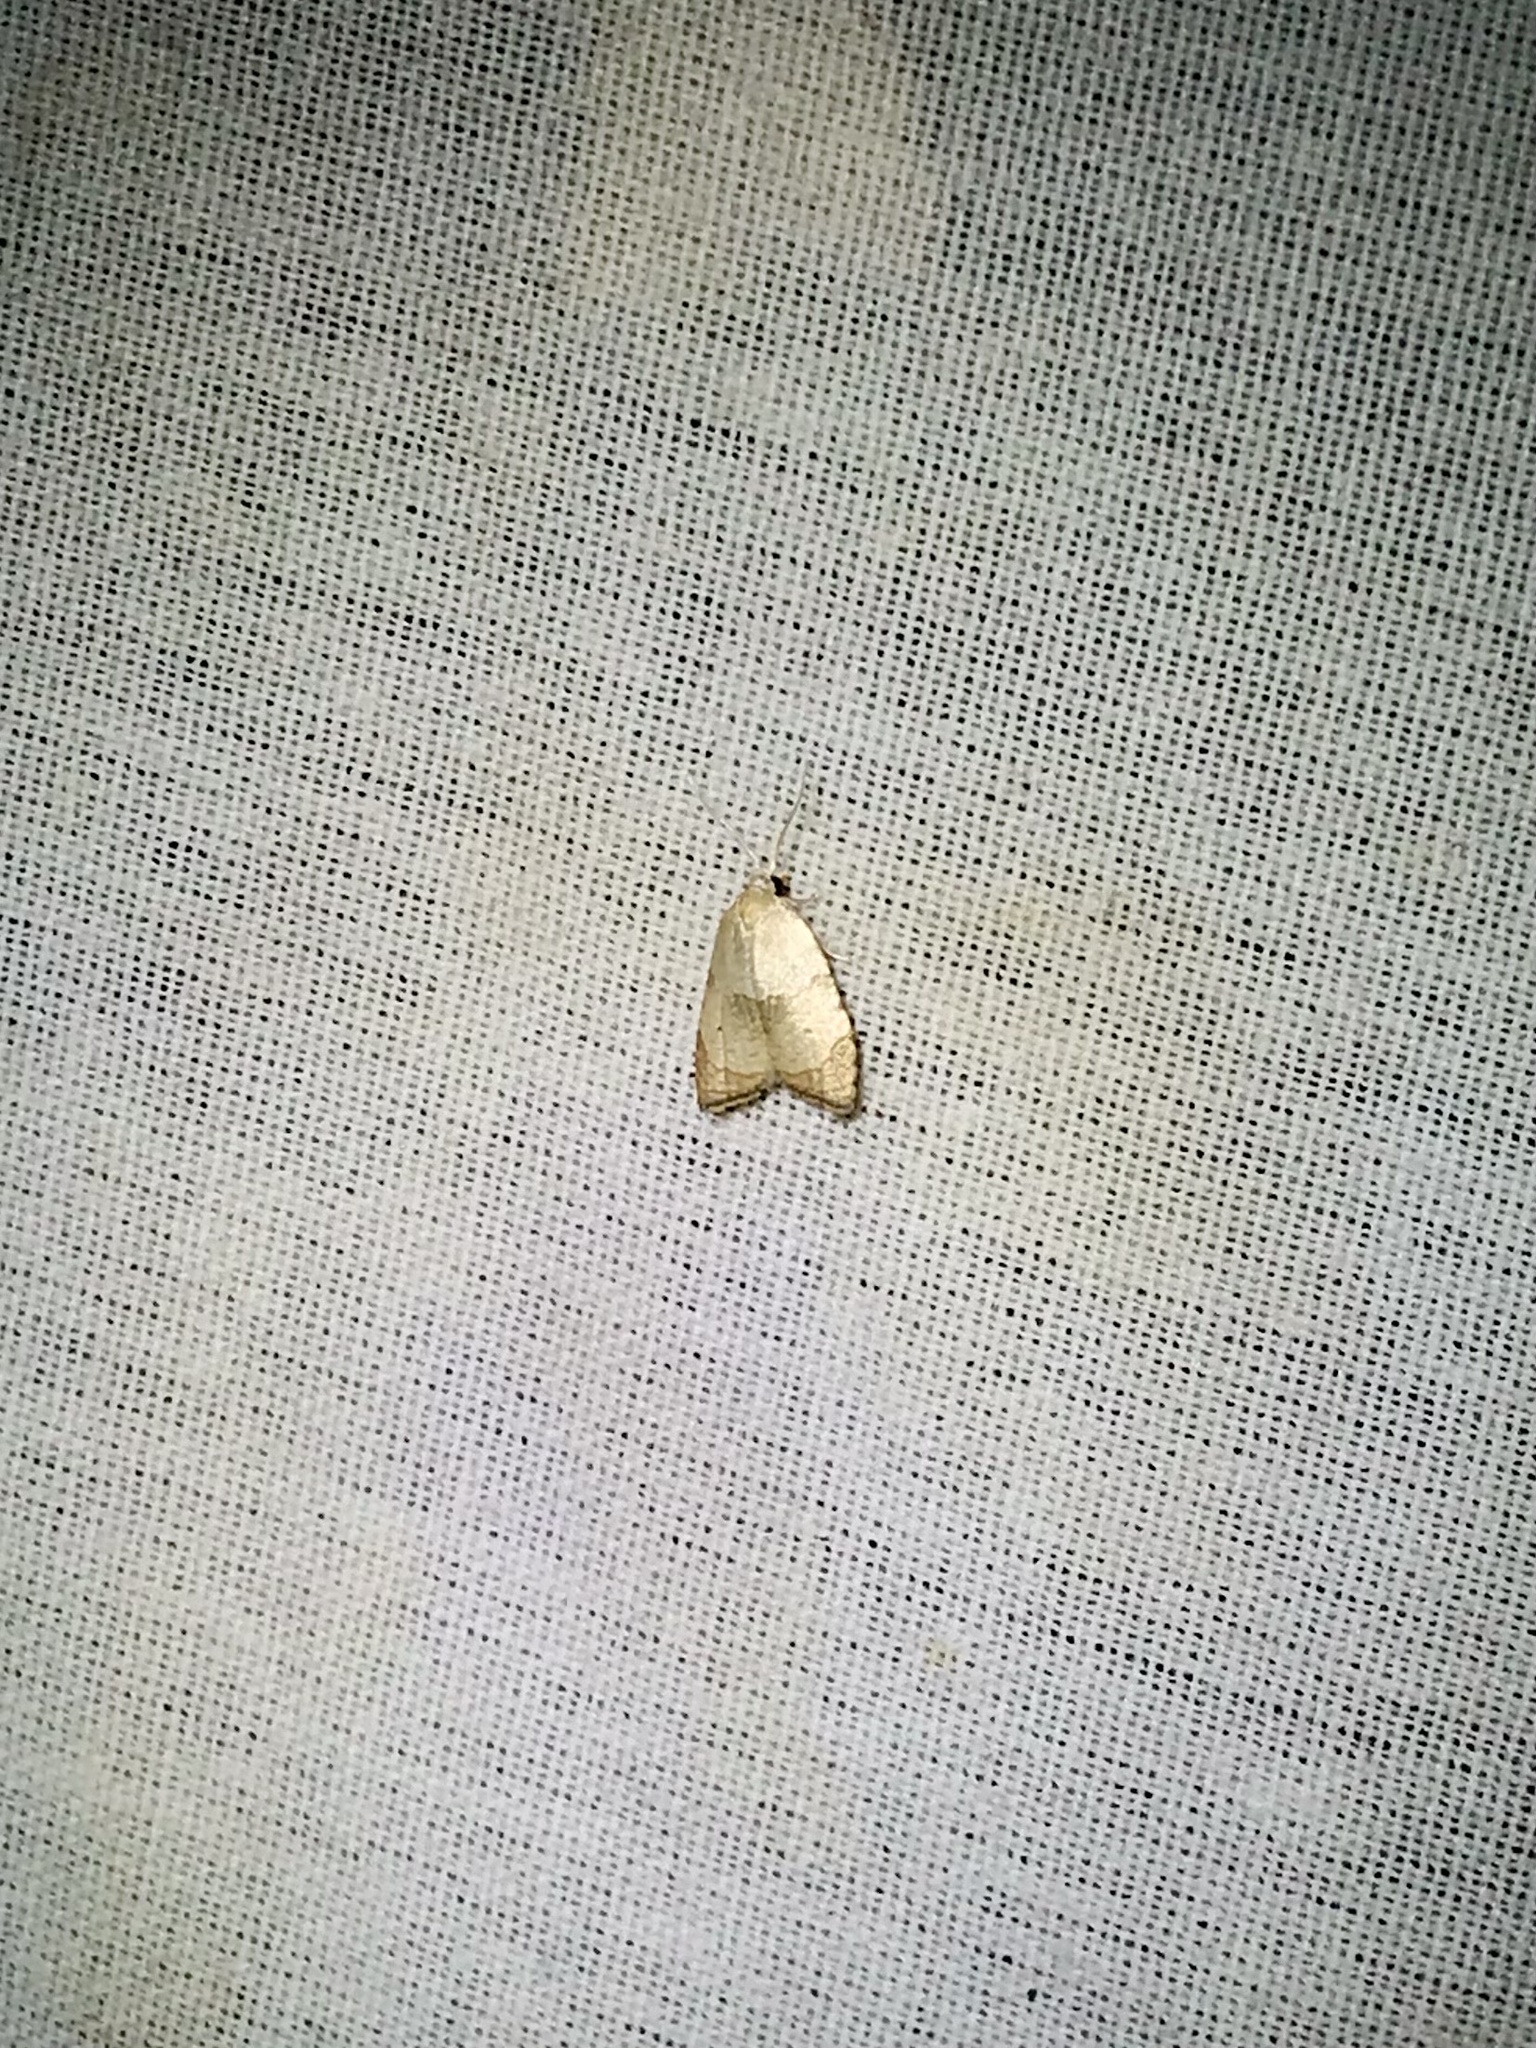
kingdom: Animalia
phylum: Arthropoda
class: Insecta
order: Lepidoptera
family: Tortricidae
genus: Coelostathma
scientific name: Coelostathma discopunctana
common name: Batman moth
